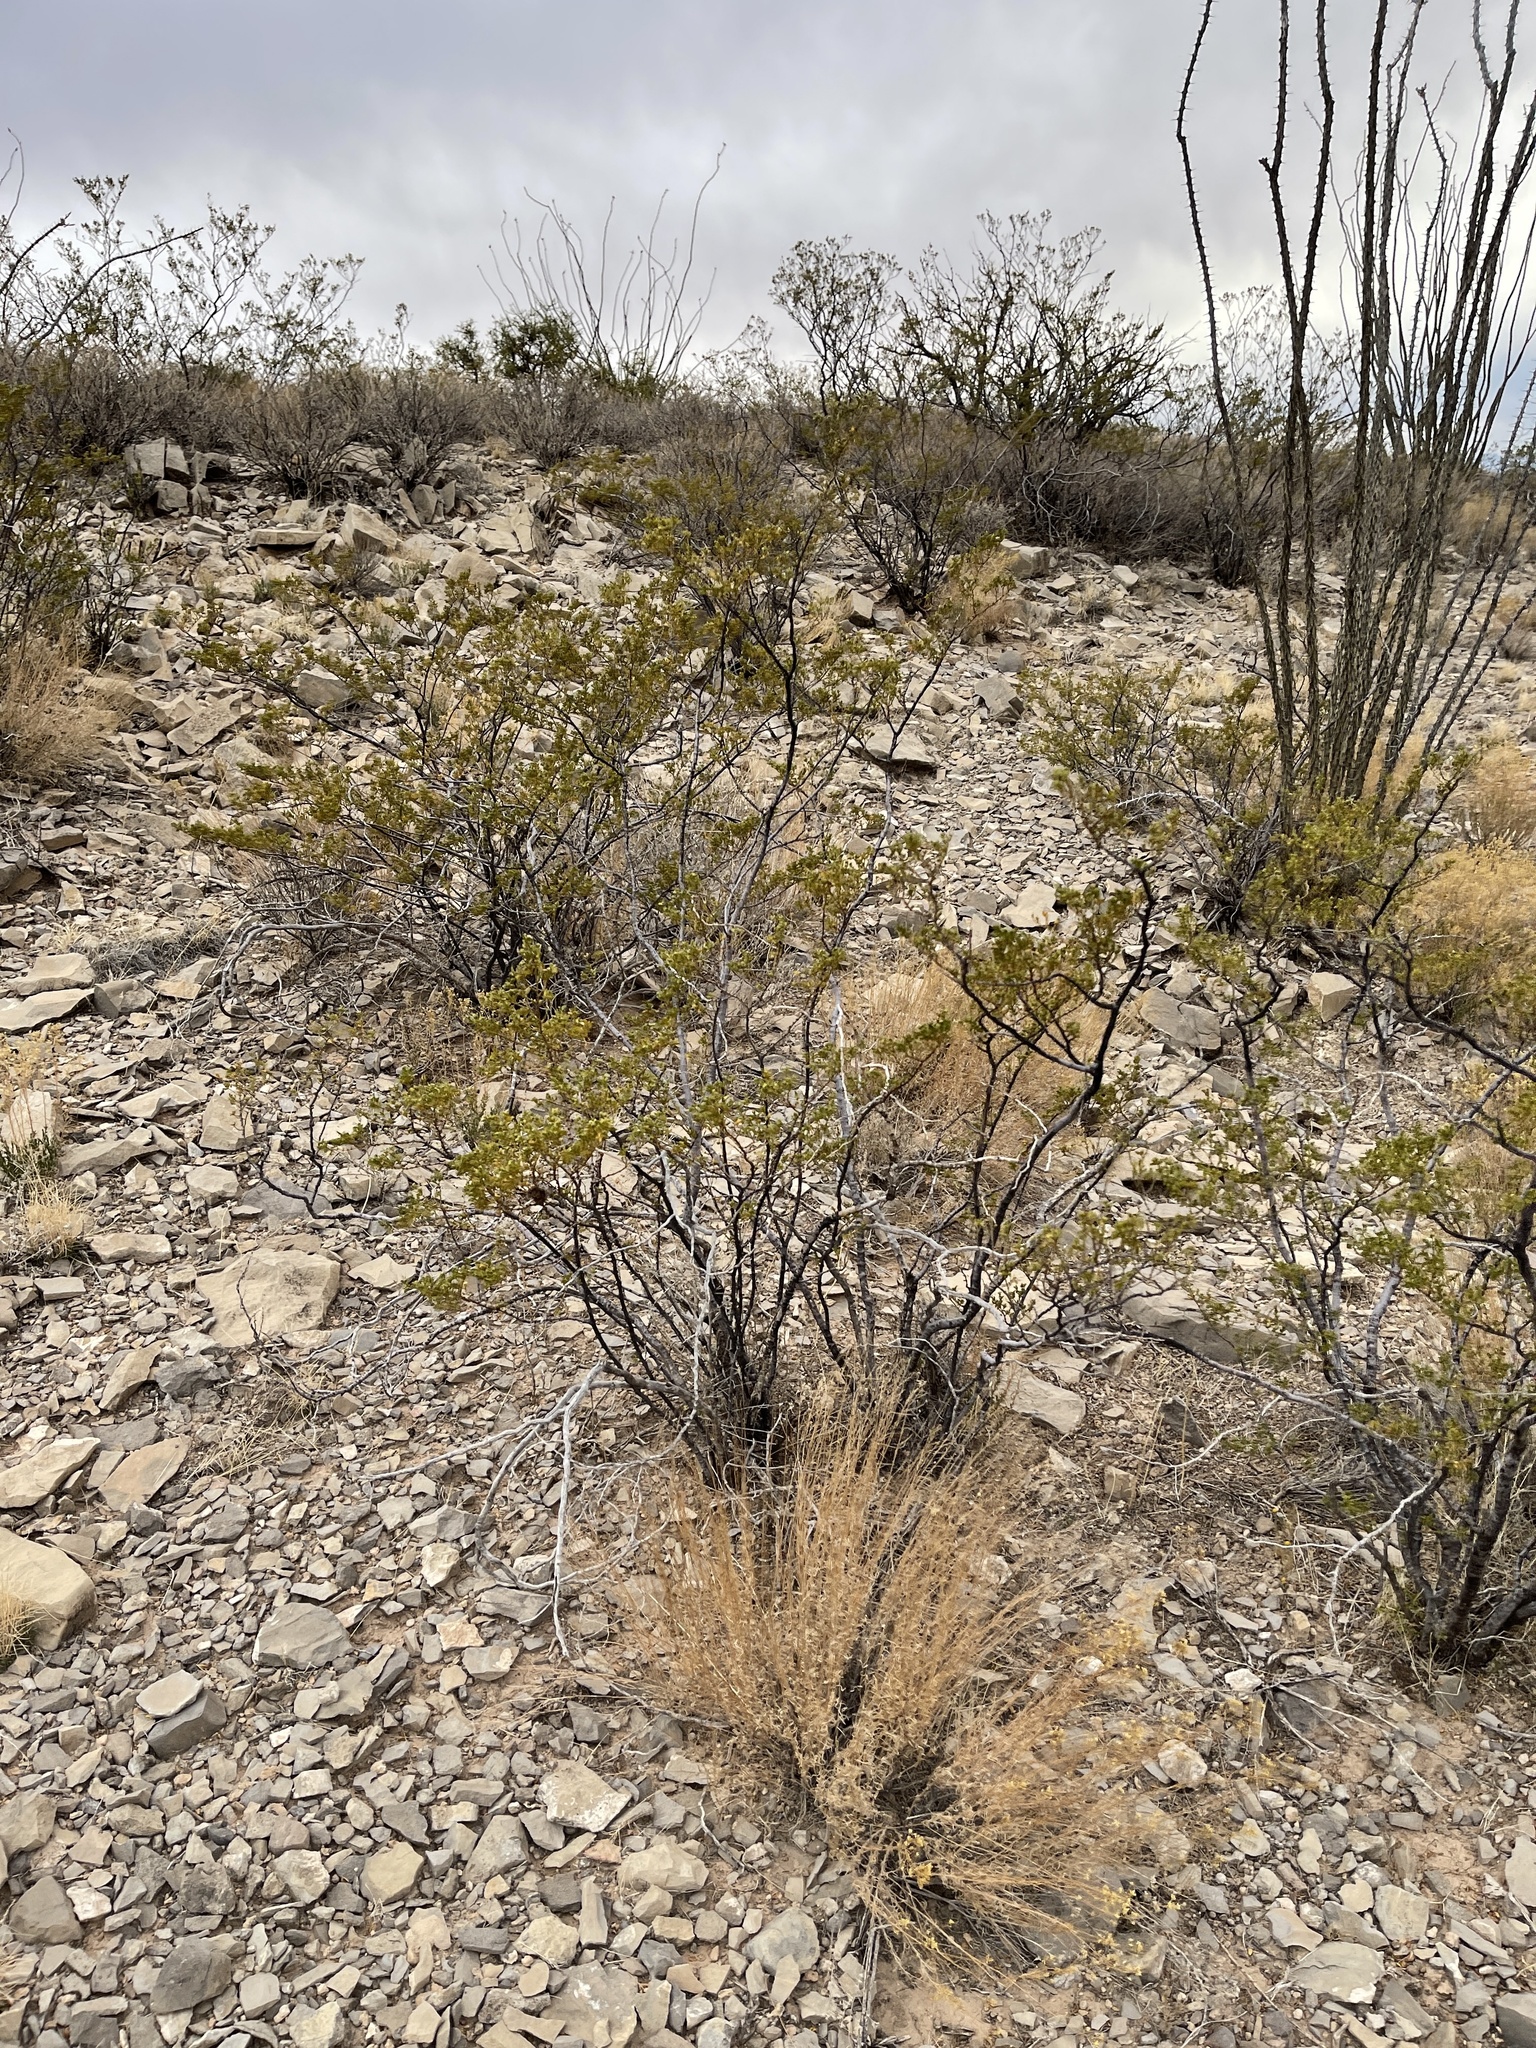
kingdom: Plantae
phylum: Tracheophyta
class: Magnoliopsida
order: Zygophyllales
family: Zygophyllaceae
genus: Larrea
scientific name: Larrea tridentata
